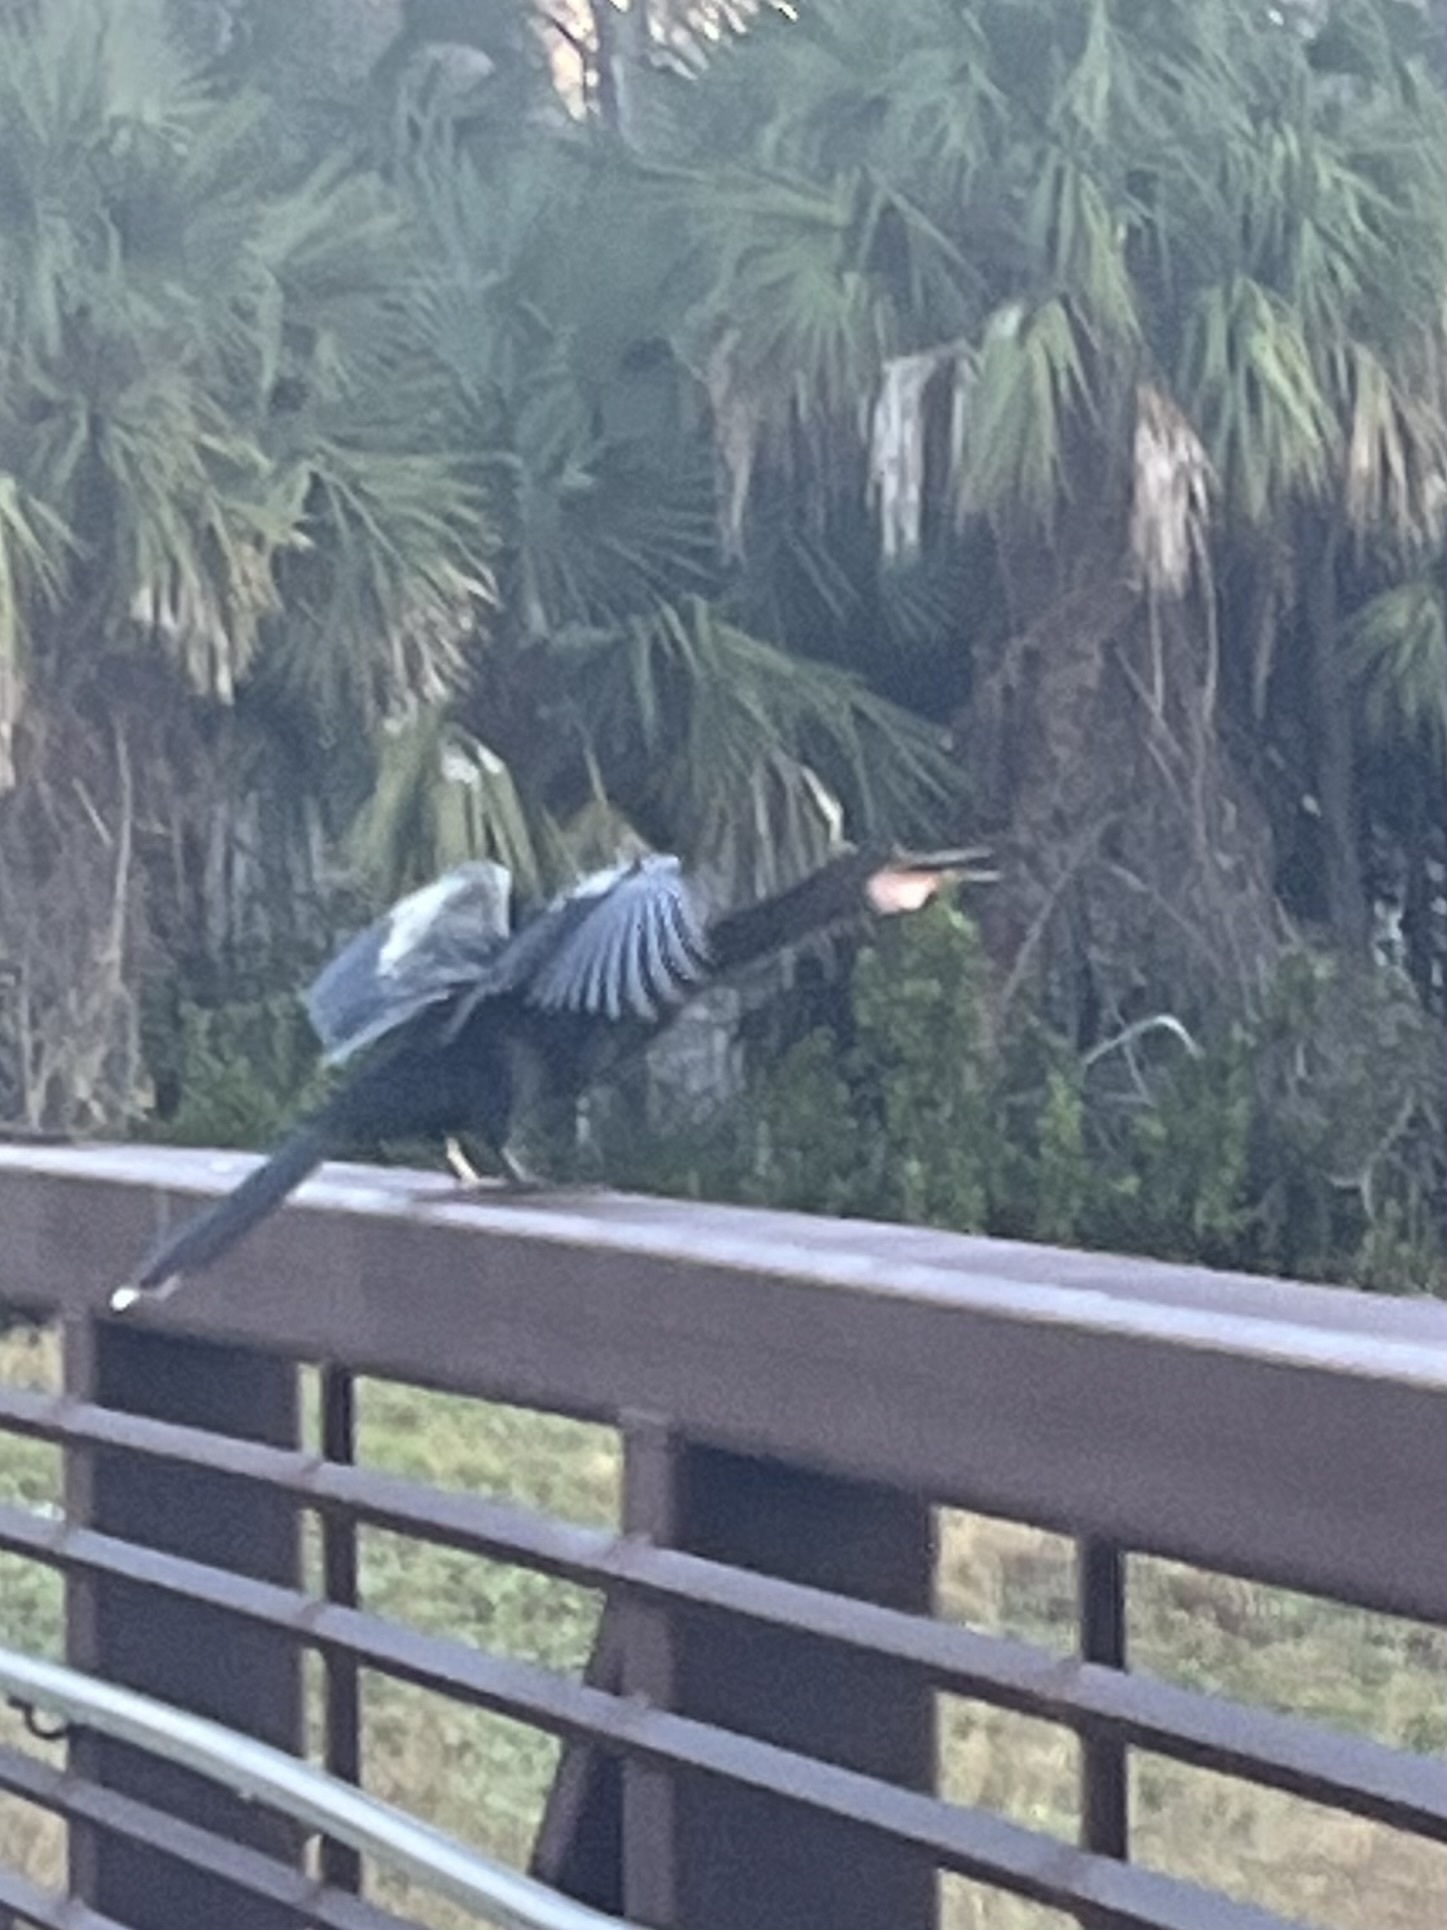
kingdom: Animalia
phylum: Chordata
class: Aves
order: Suliformes
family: Anhingidae
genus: Anhinga
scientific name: Anhinga anhinga
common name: Anhinga
